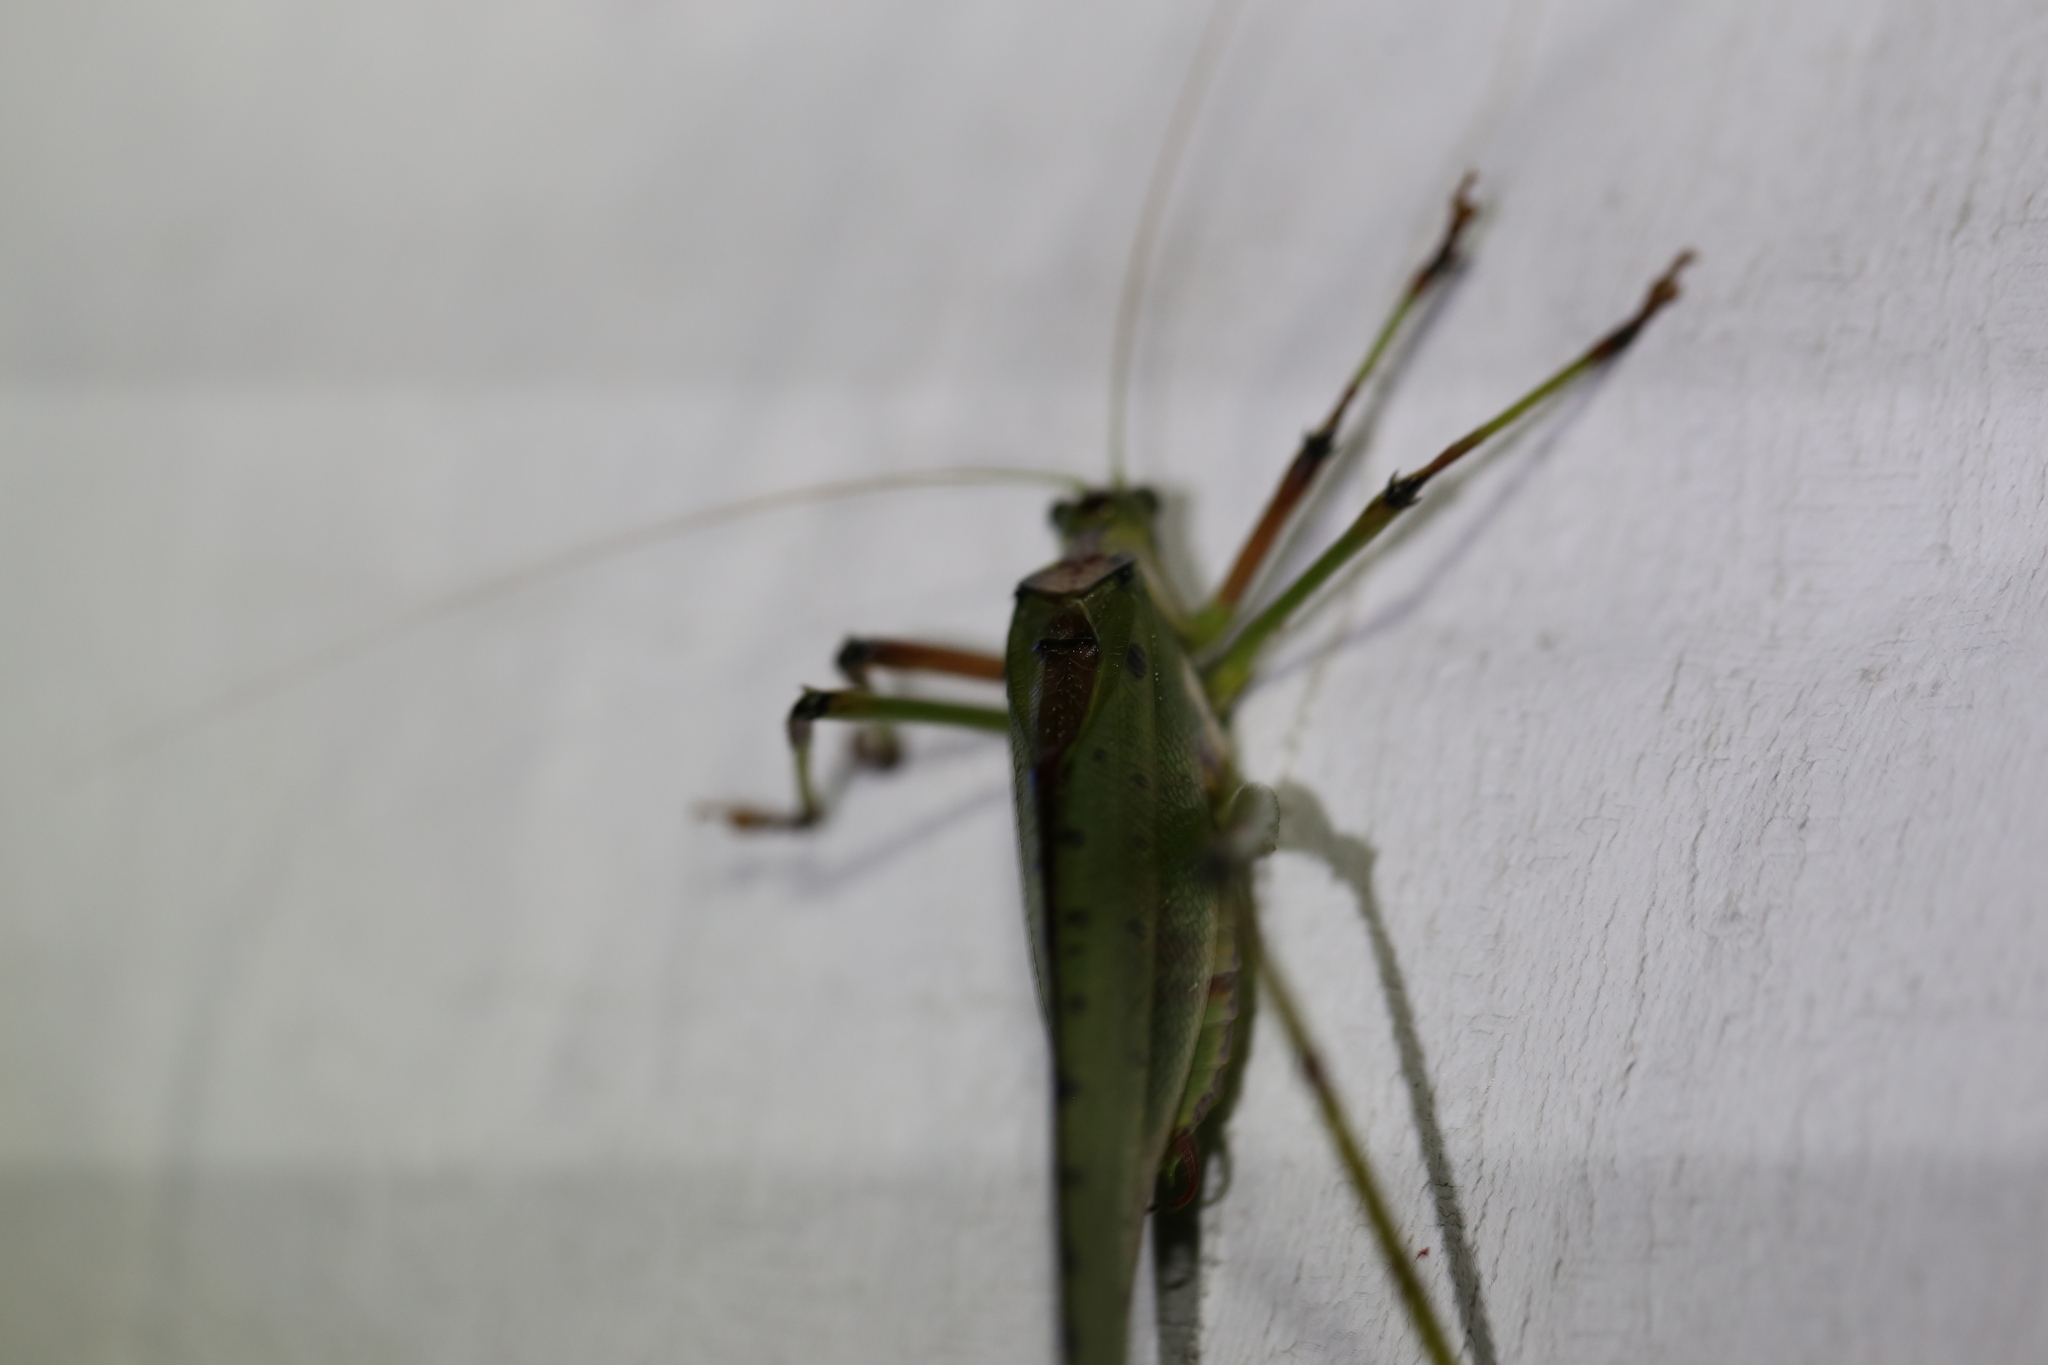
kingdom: Animalia
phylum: Arthropoda
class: Insecta
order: Orthoptera
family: Tettigoniidae
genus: Ephippitytha
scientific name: Ephippitytha trigintiduoguttata
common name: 32-spotted katydid
